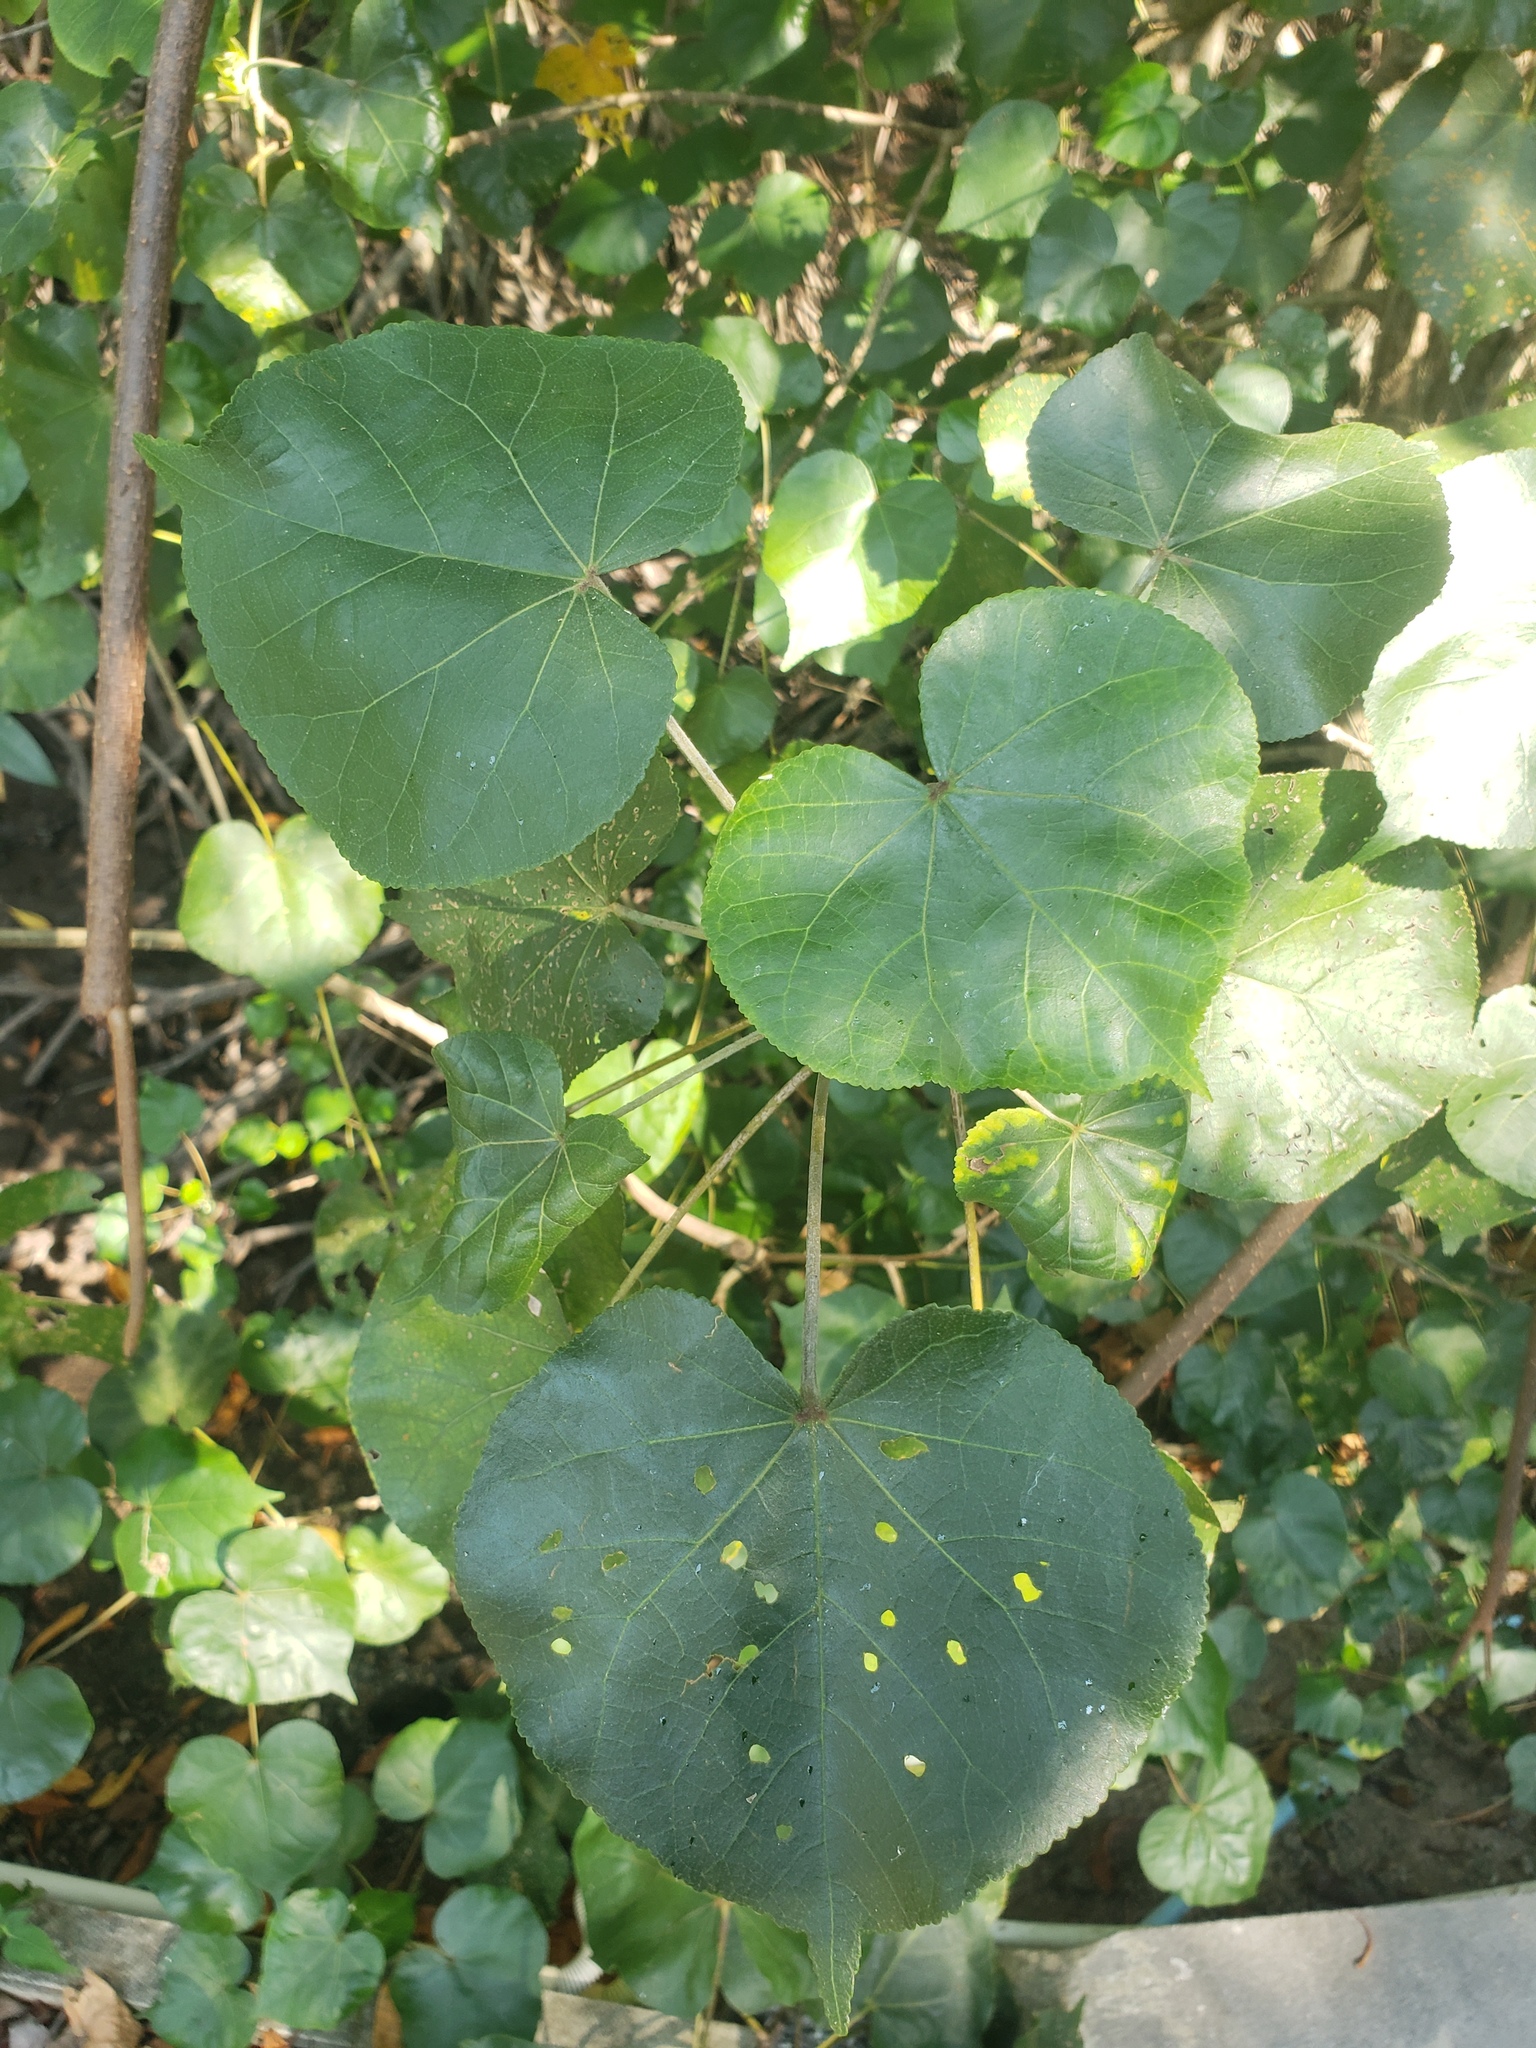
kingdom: Plantae
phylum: Tracheophyta
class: Magnoliopsida
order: Malvales
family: Malvaceae
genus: Talipariti
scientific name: Talipariti tiliaceum
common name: Sea hibiscus
